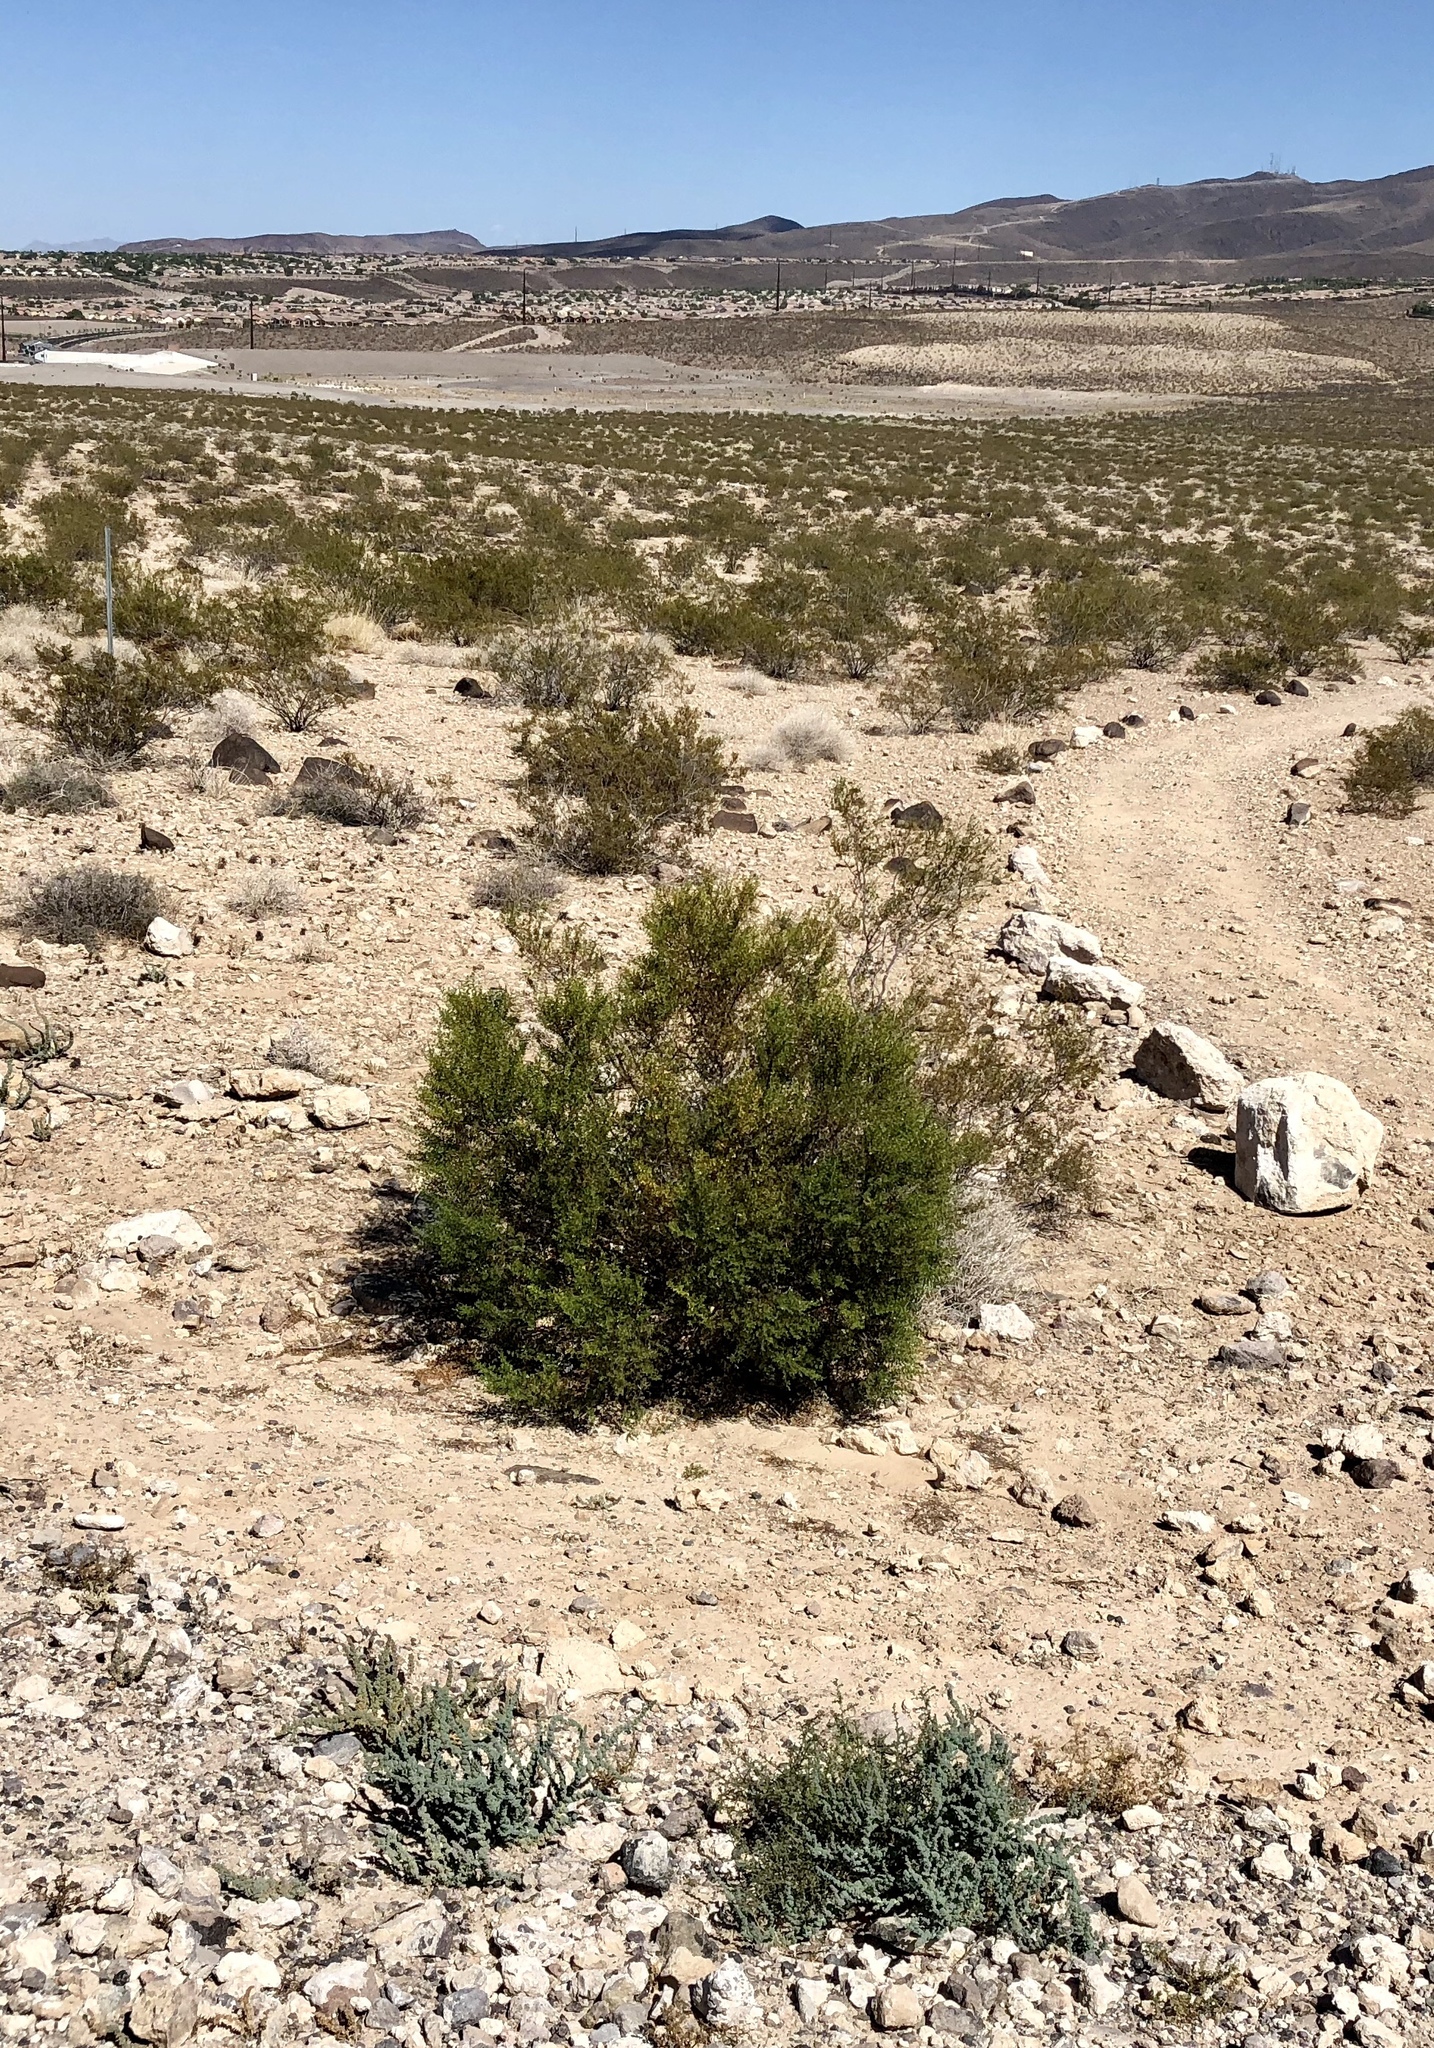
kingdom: Plantae
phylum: Tracheophyta
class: Magnoliopsida
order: Zygophyllales
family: Zygophyllaceae
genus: Larrea
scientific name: Larrea tridentata
